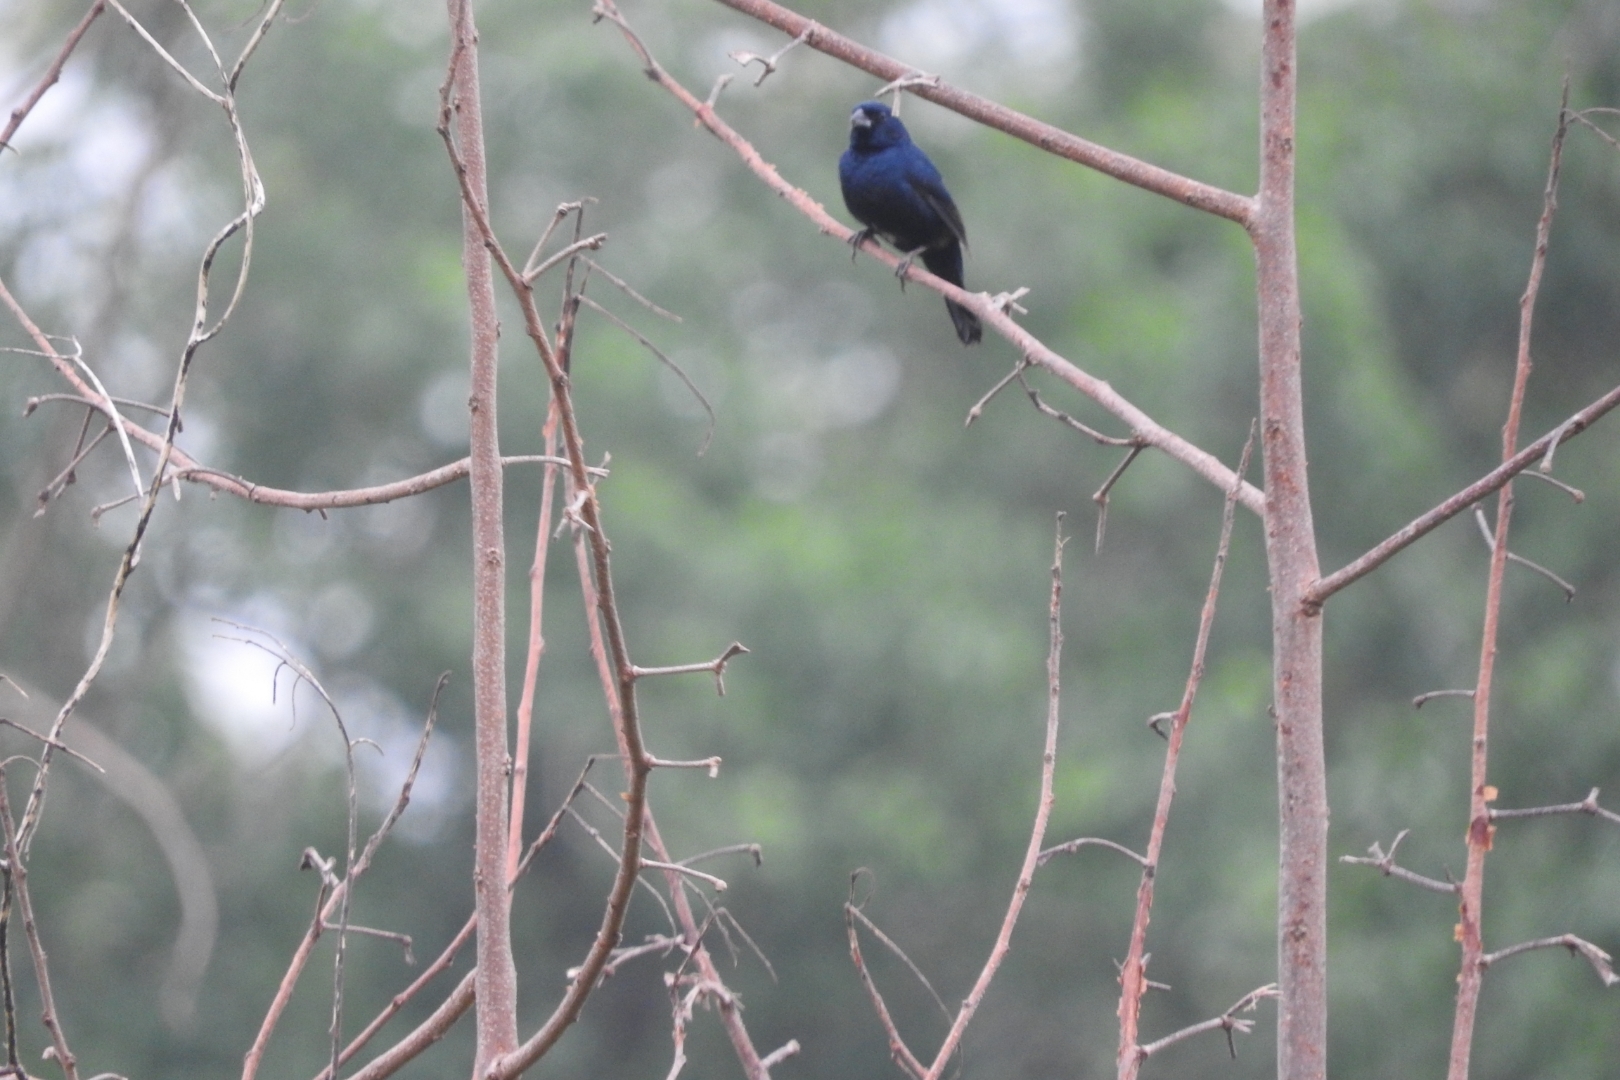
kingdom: Animalia
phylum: Chordata
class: Aves
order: Passeriformes
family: Thraupidae
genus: Volatinia
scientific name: Volatinia jacarina
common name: Blue-black grassquit
